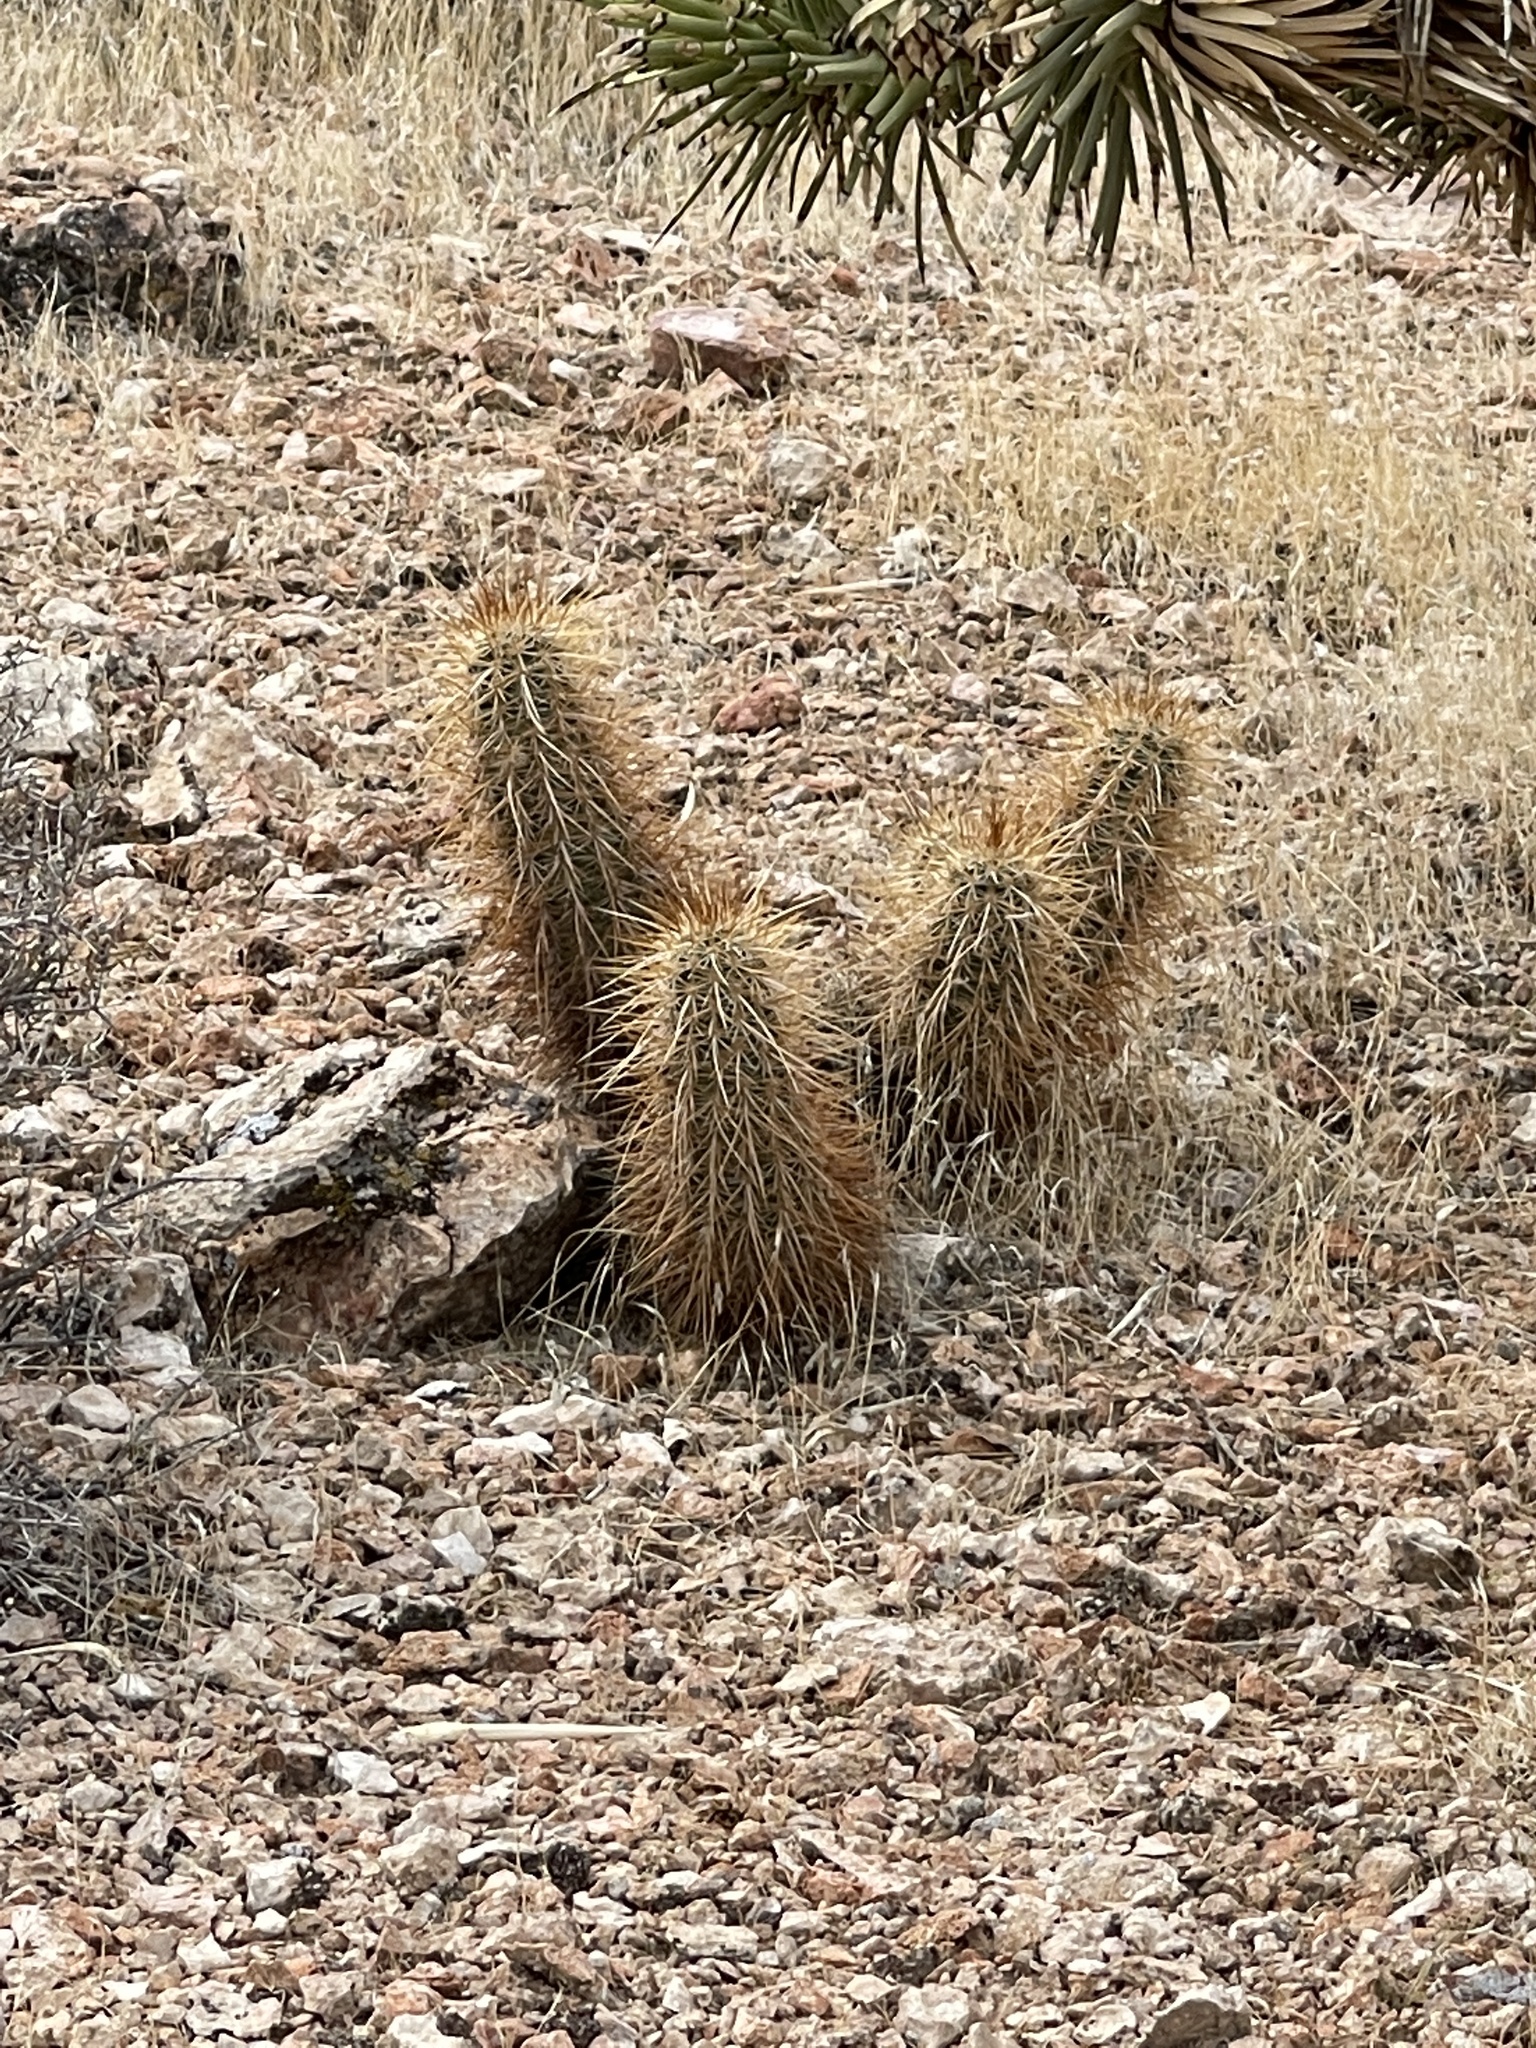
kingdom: Plantae
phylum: Tracheophyta
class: Magnoliopsida
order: Caryophyllales
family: Cactaceae
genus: Echinocereus
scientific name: Echinocereus engelmannii
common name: Engelmann's hedgehog cactus
